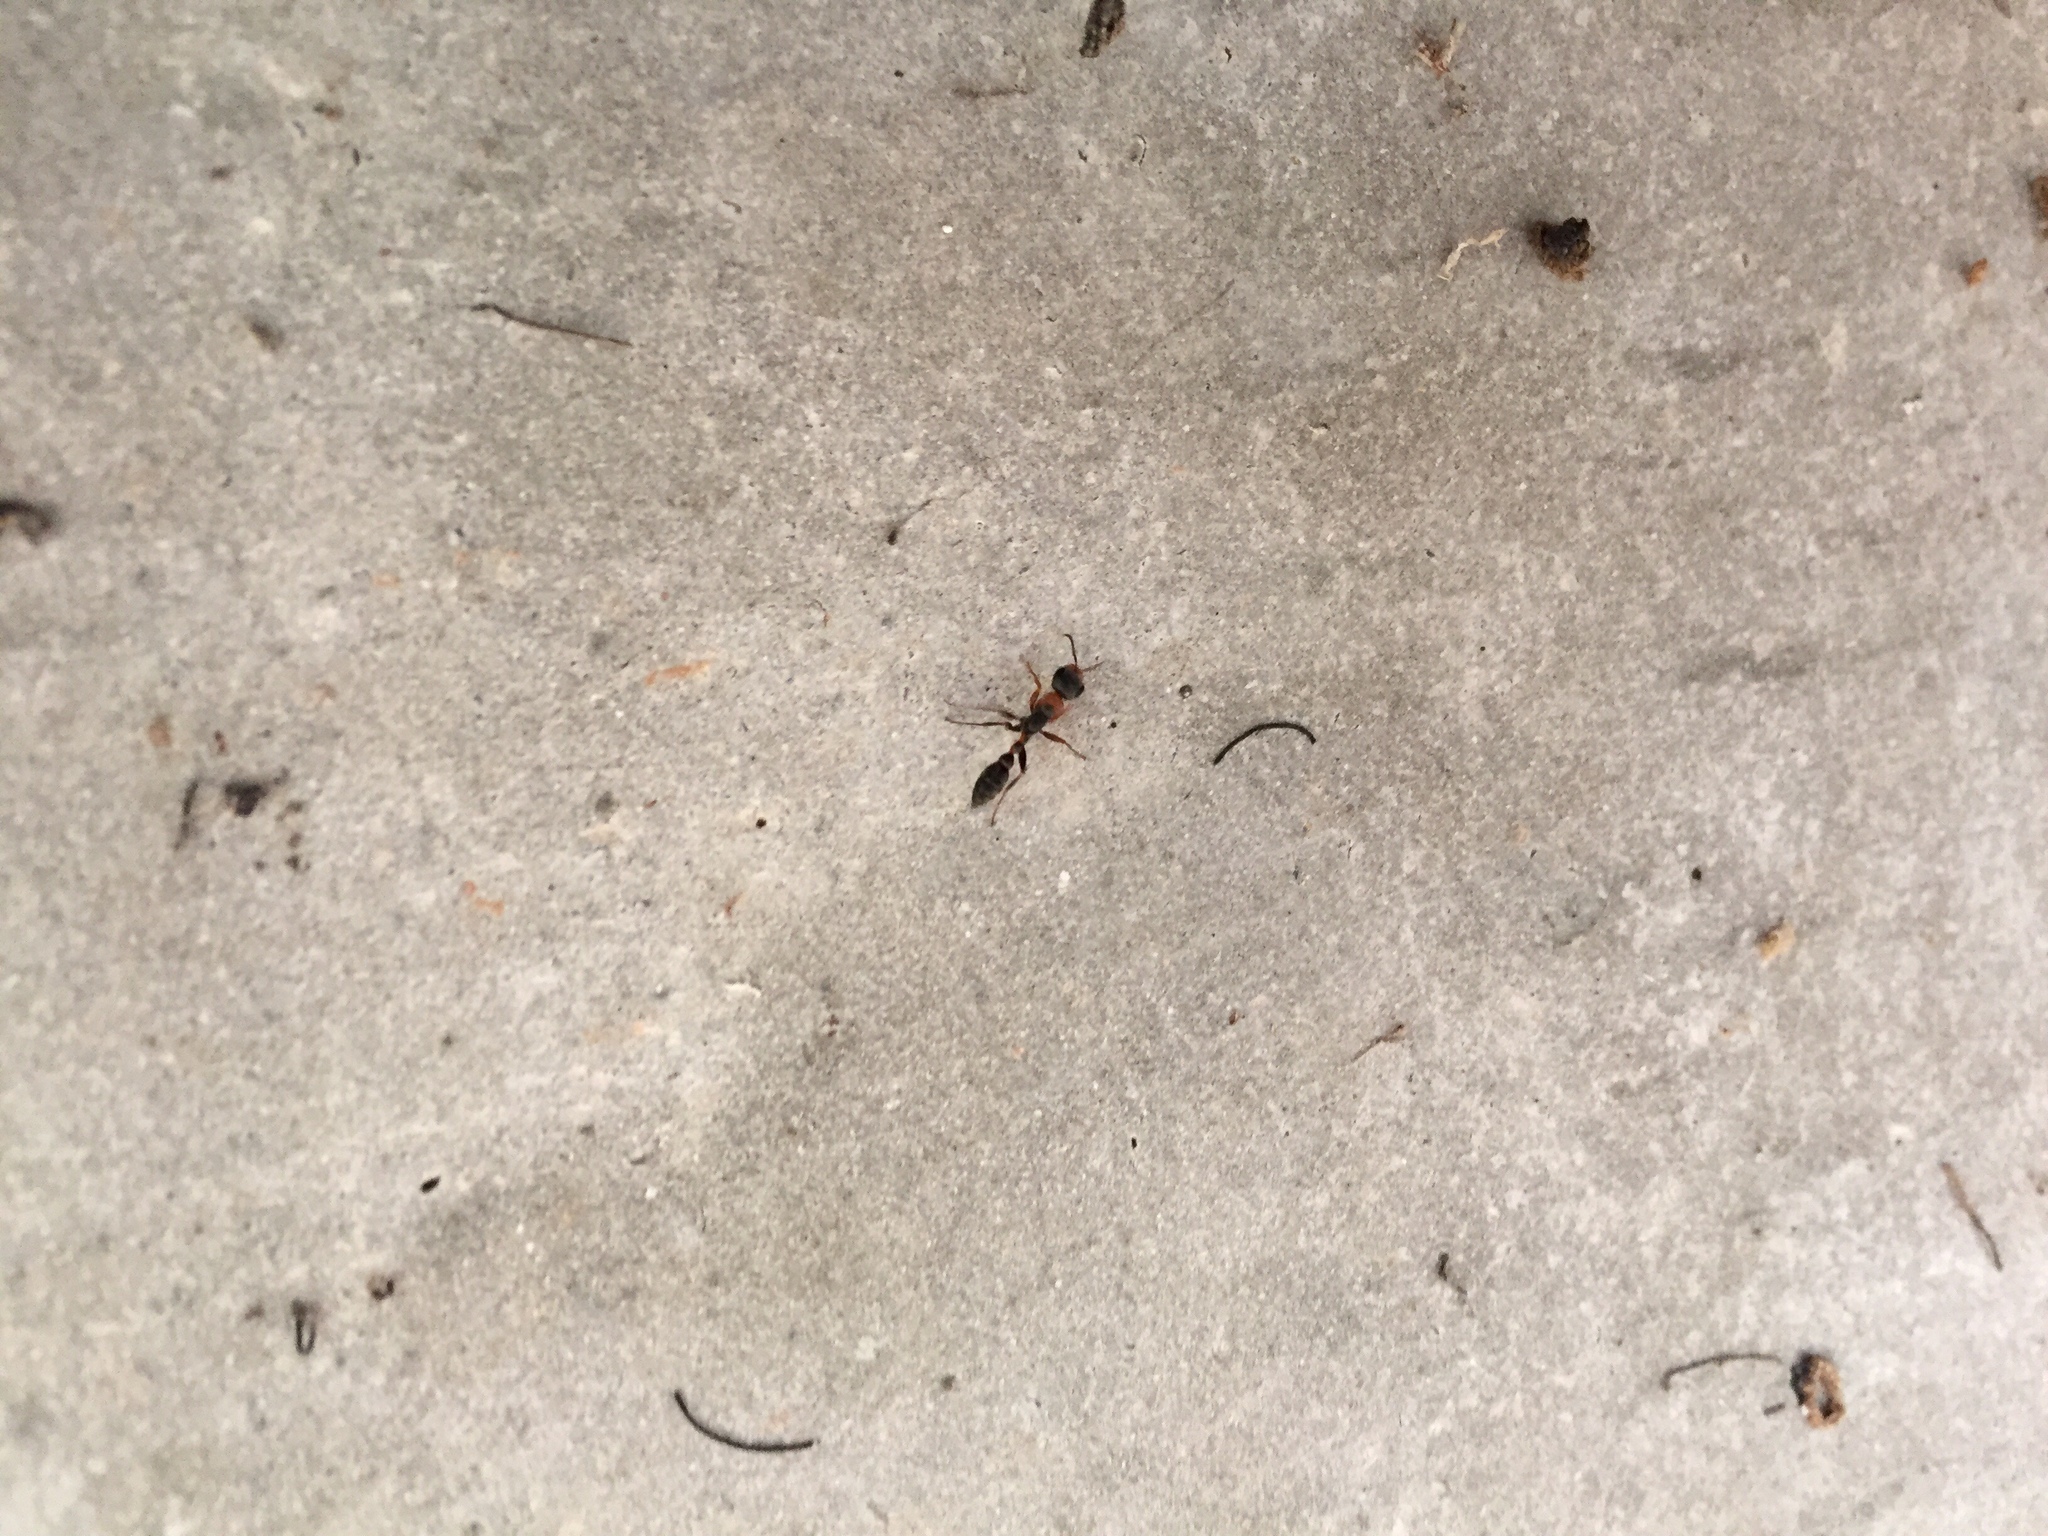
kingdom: Animalia
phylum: Arthropoda
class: Insecta
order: Hymenoptera
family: Formicidae
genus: Pseudomyrmex
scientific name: Pseudomyrmex gracilis
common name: Graceful twig ant
